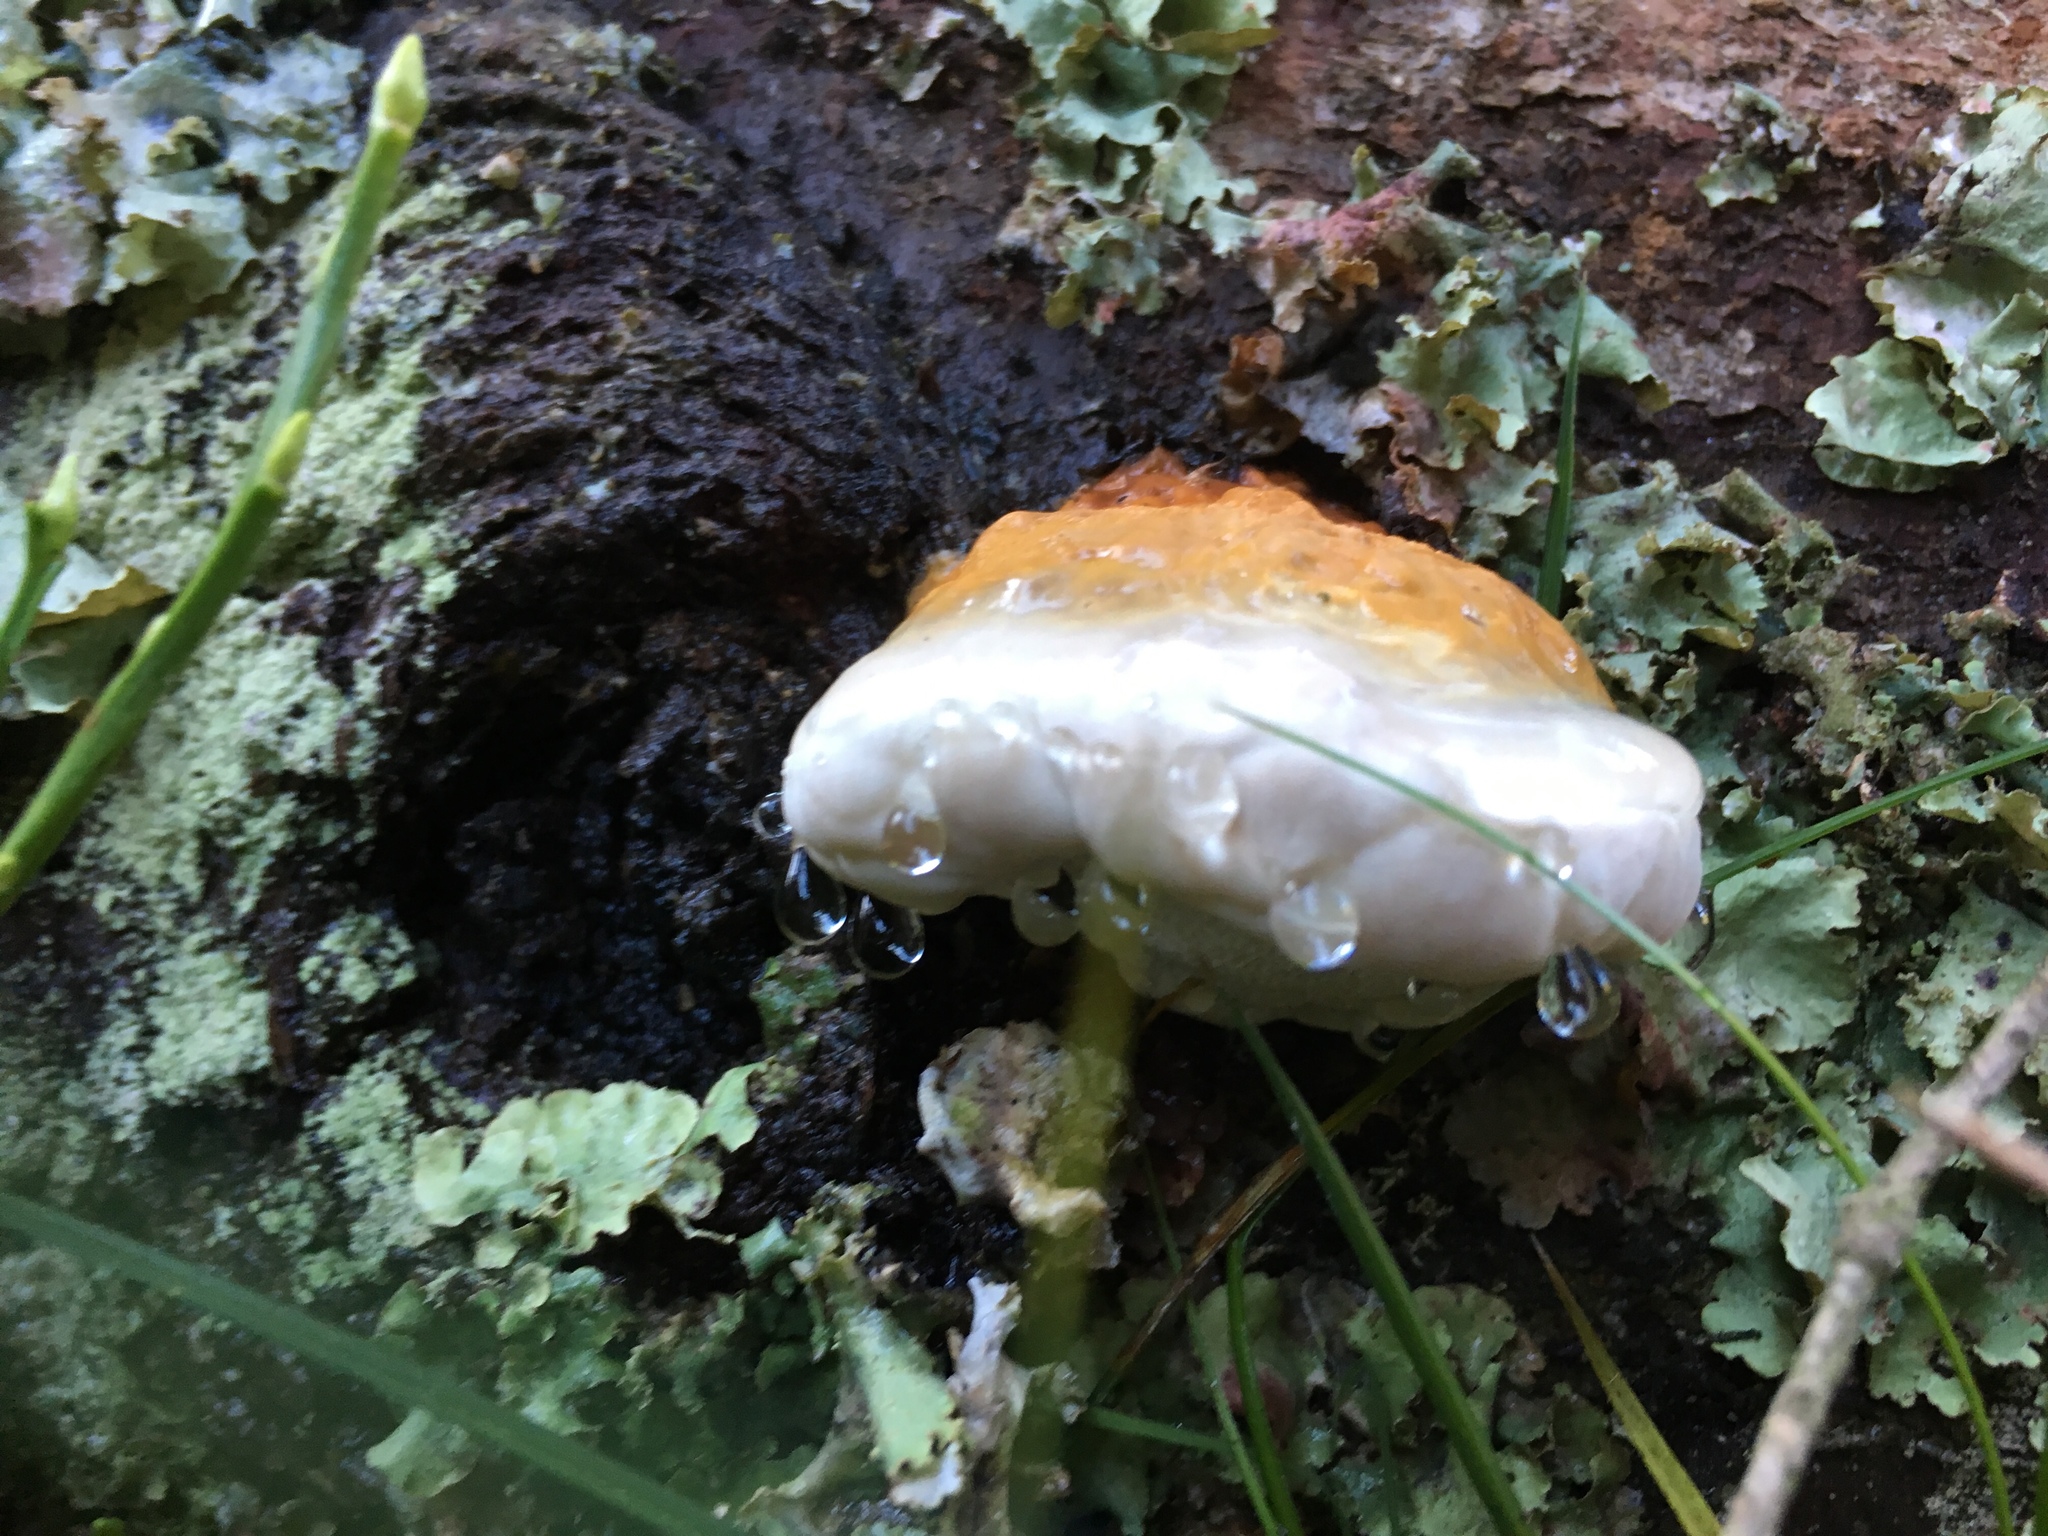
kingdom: Fungi
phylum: Basidiomycota
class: Agaricomycetes
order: Polyporales
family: Fomitopsidaceae
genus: Fomitopsis
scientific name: Fomitopsis pinicola
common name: Red-belted bracket
